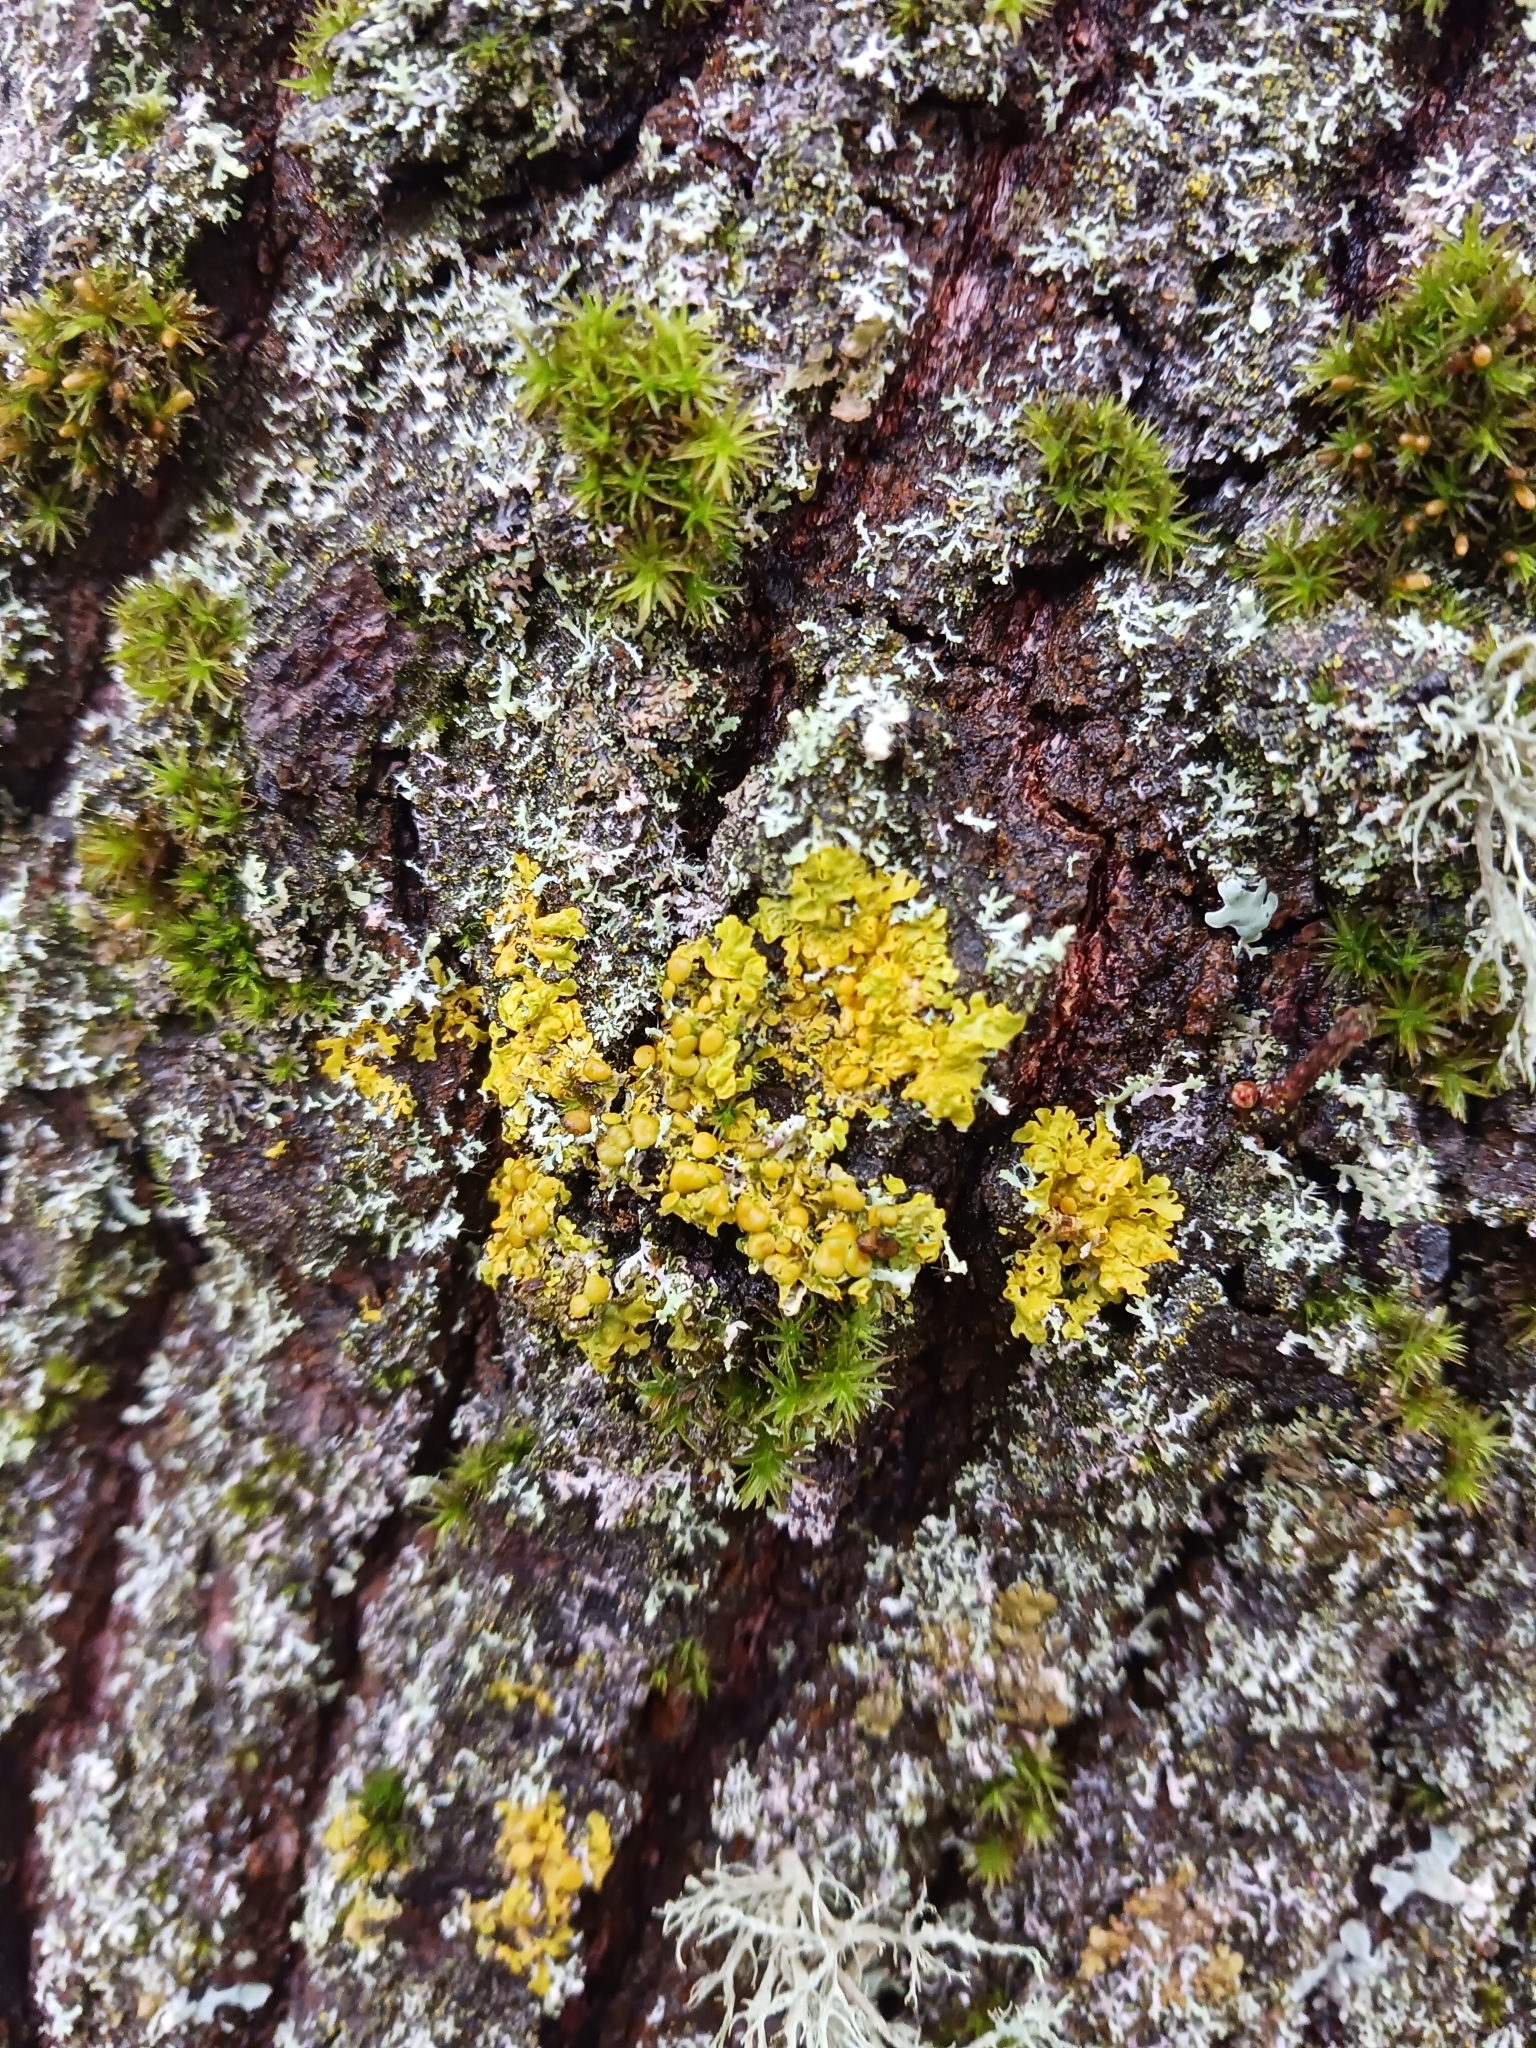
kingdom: Fungi
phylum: Ascomycota
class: Lecanoromycetes
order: Teloschistales
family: Teloschistaceae
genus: Xanthoria
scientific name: Xanthoria parietina
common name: Common orange lichen
